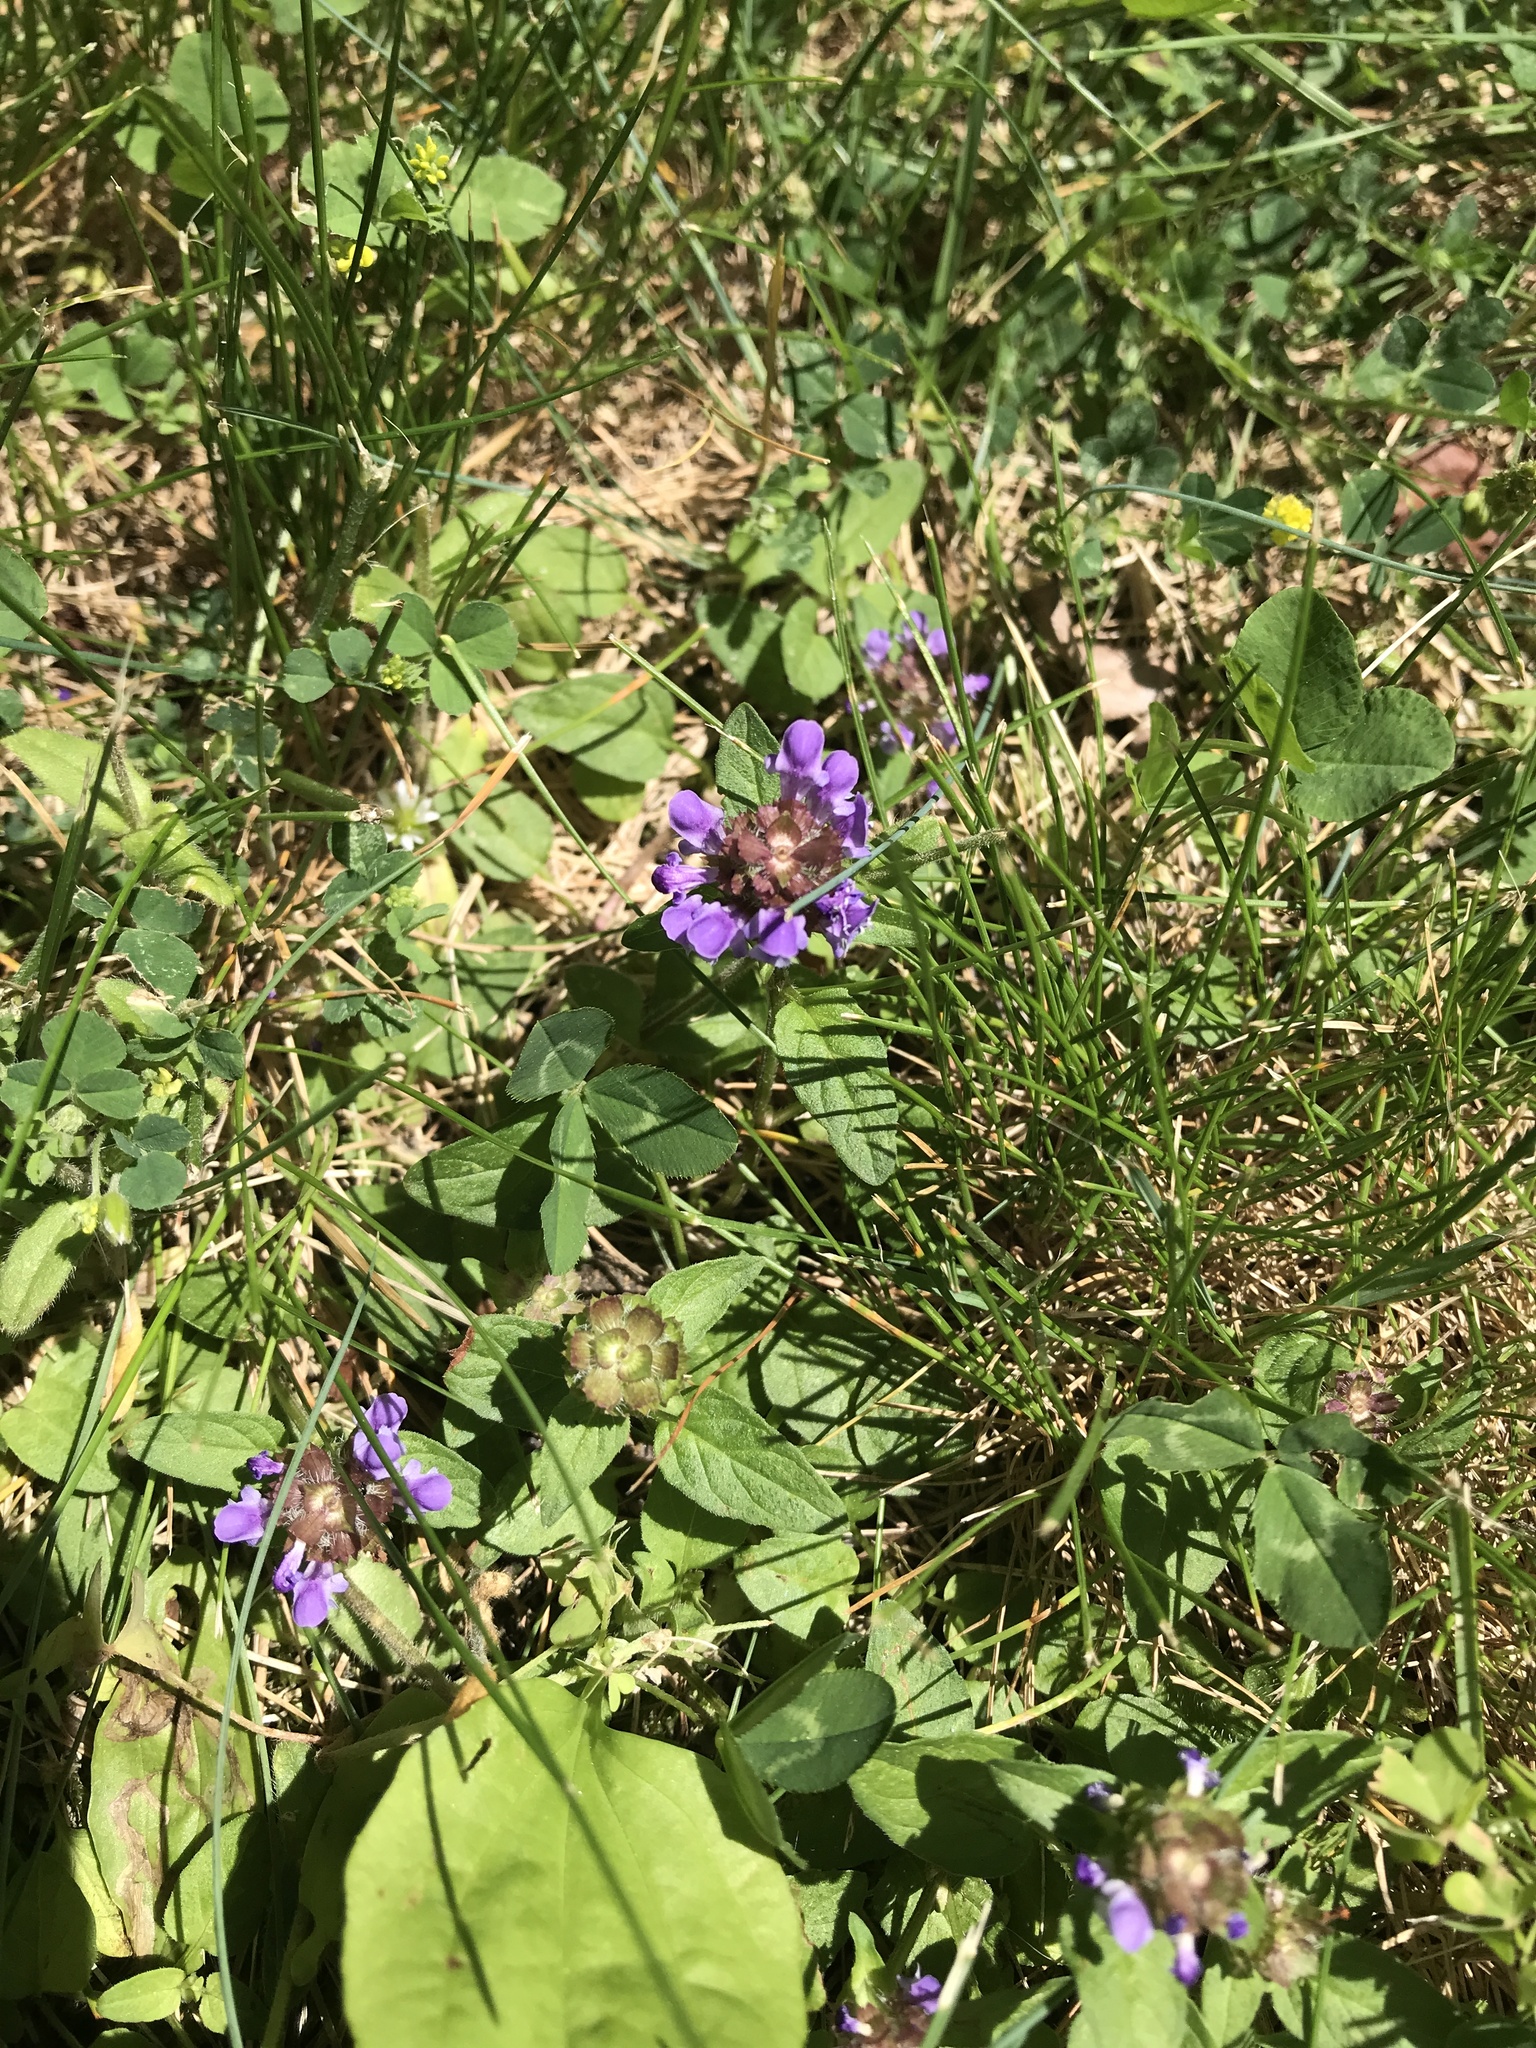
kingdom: Plantae
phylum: Tracheophyta
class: Magnoliopsida
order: Lamiales
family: Lamiaceae
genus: Prunella
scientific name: Prunella vulgaris
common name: Heal-all
